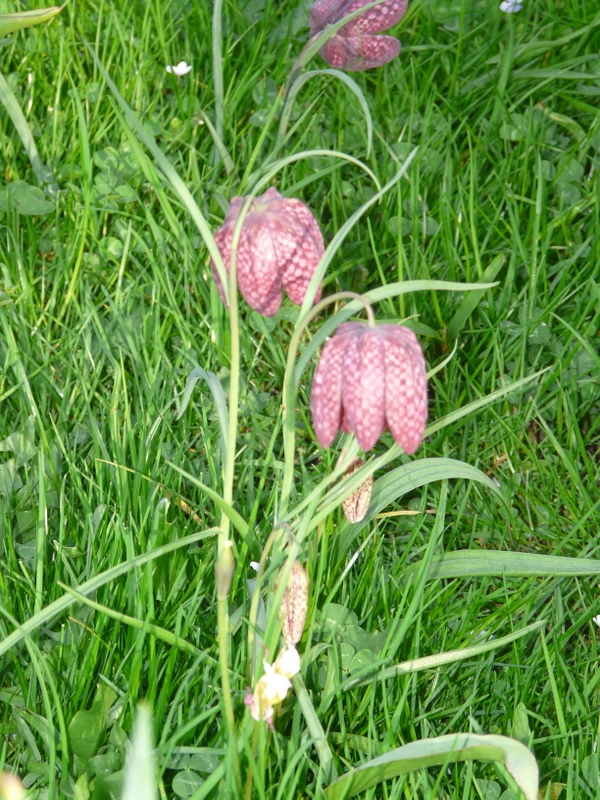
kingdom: Plantae
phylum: Tracheophyta
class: Liliopsida
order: Liliales
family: Liliaceae
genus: Fritillaria
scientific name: Fritillaria meleagris
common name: Fritillary
